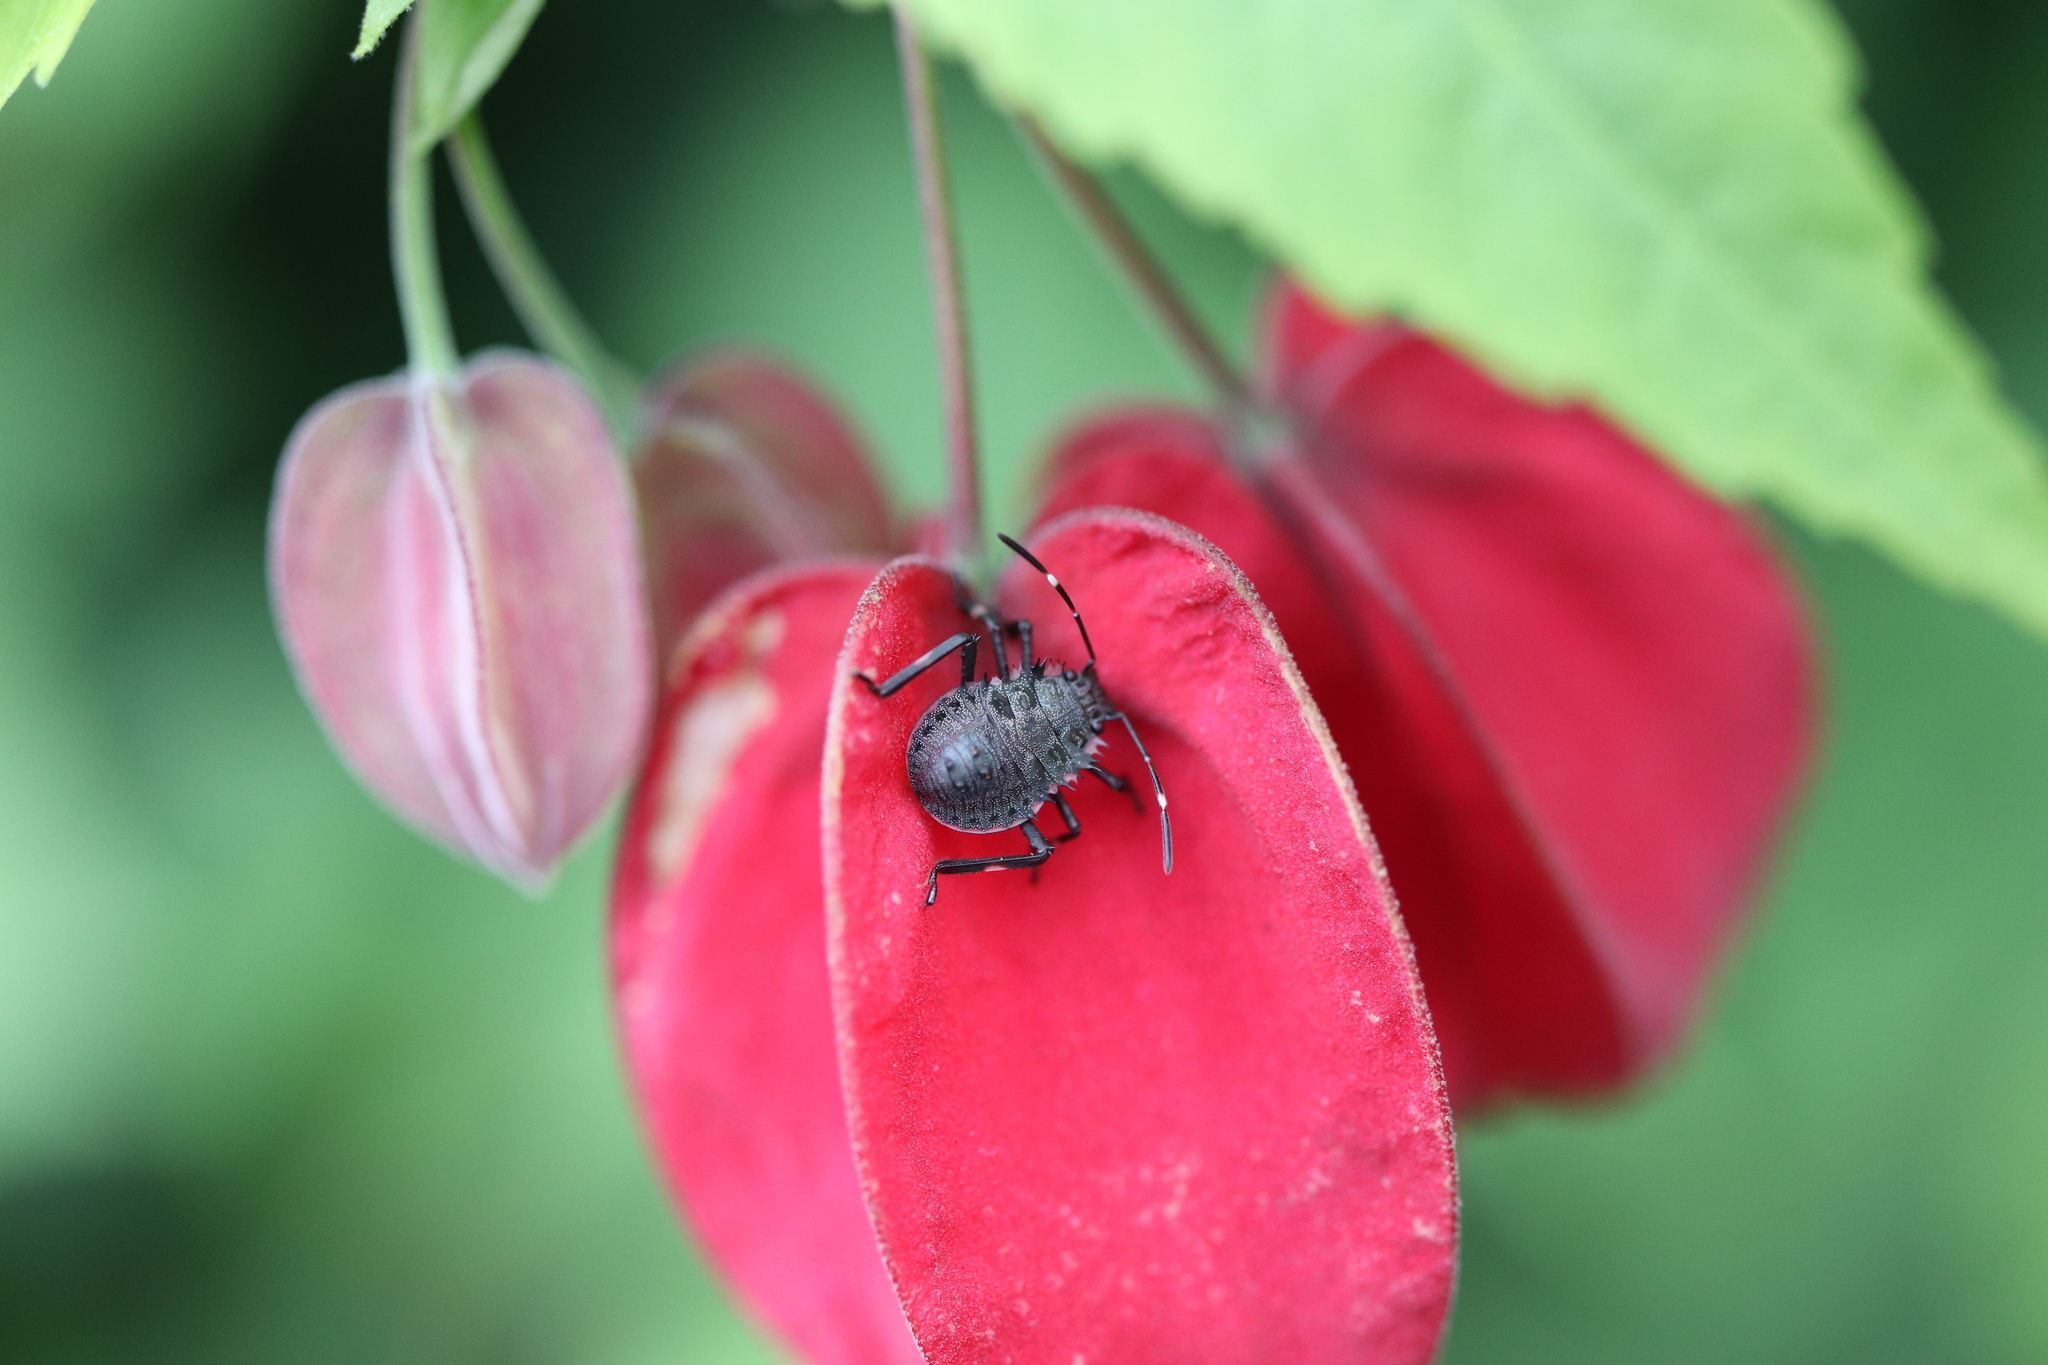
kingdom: Animalia
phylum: Arthropoda
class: Insecta
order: Hemiptera
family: Pentatomidae
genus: Halyomorpha
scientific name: Halyomorpha halys
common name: Brown marmorated stink bug
